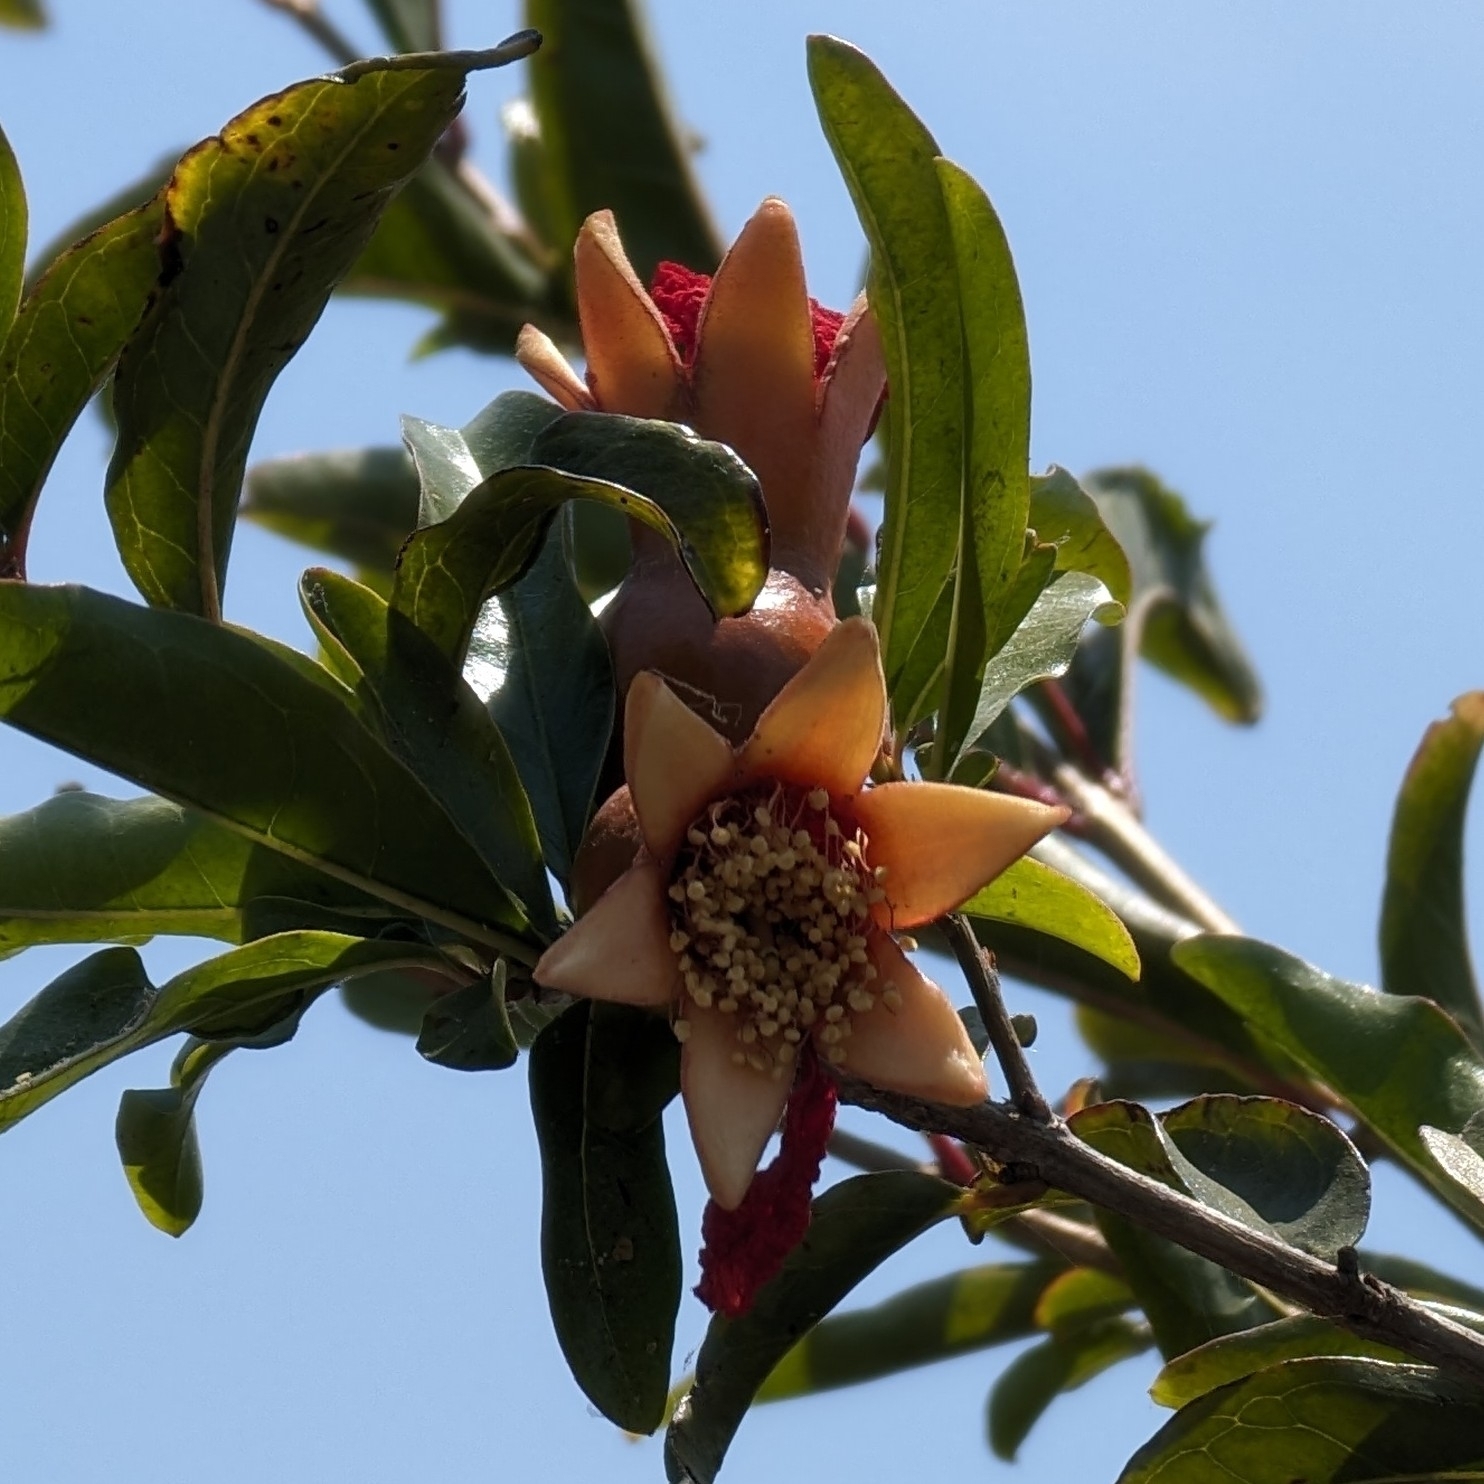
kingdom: Plantae
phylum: Tracheophyta
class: Magnoliopsida
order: Myrtales
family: Lythraceae
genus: Punica
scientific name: Punica granatum
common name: Pomegranate
